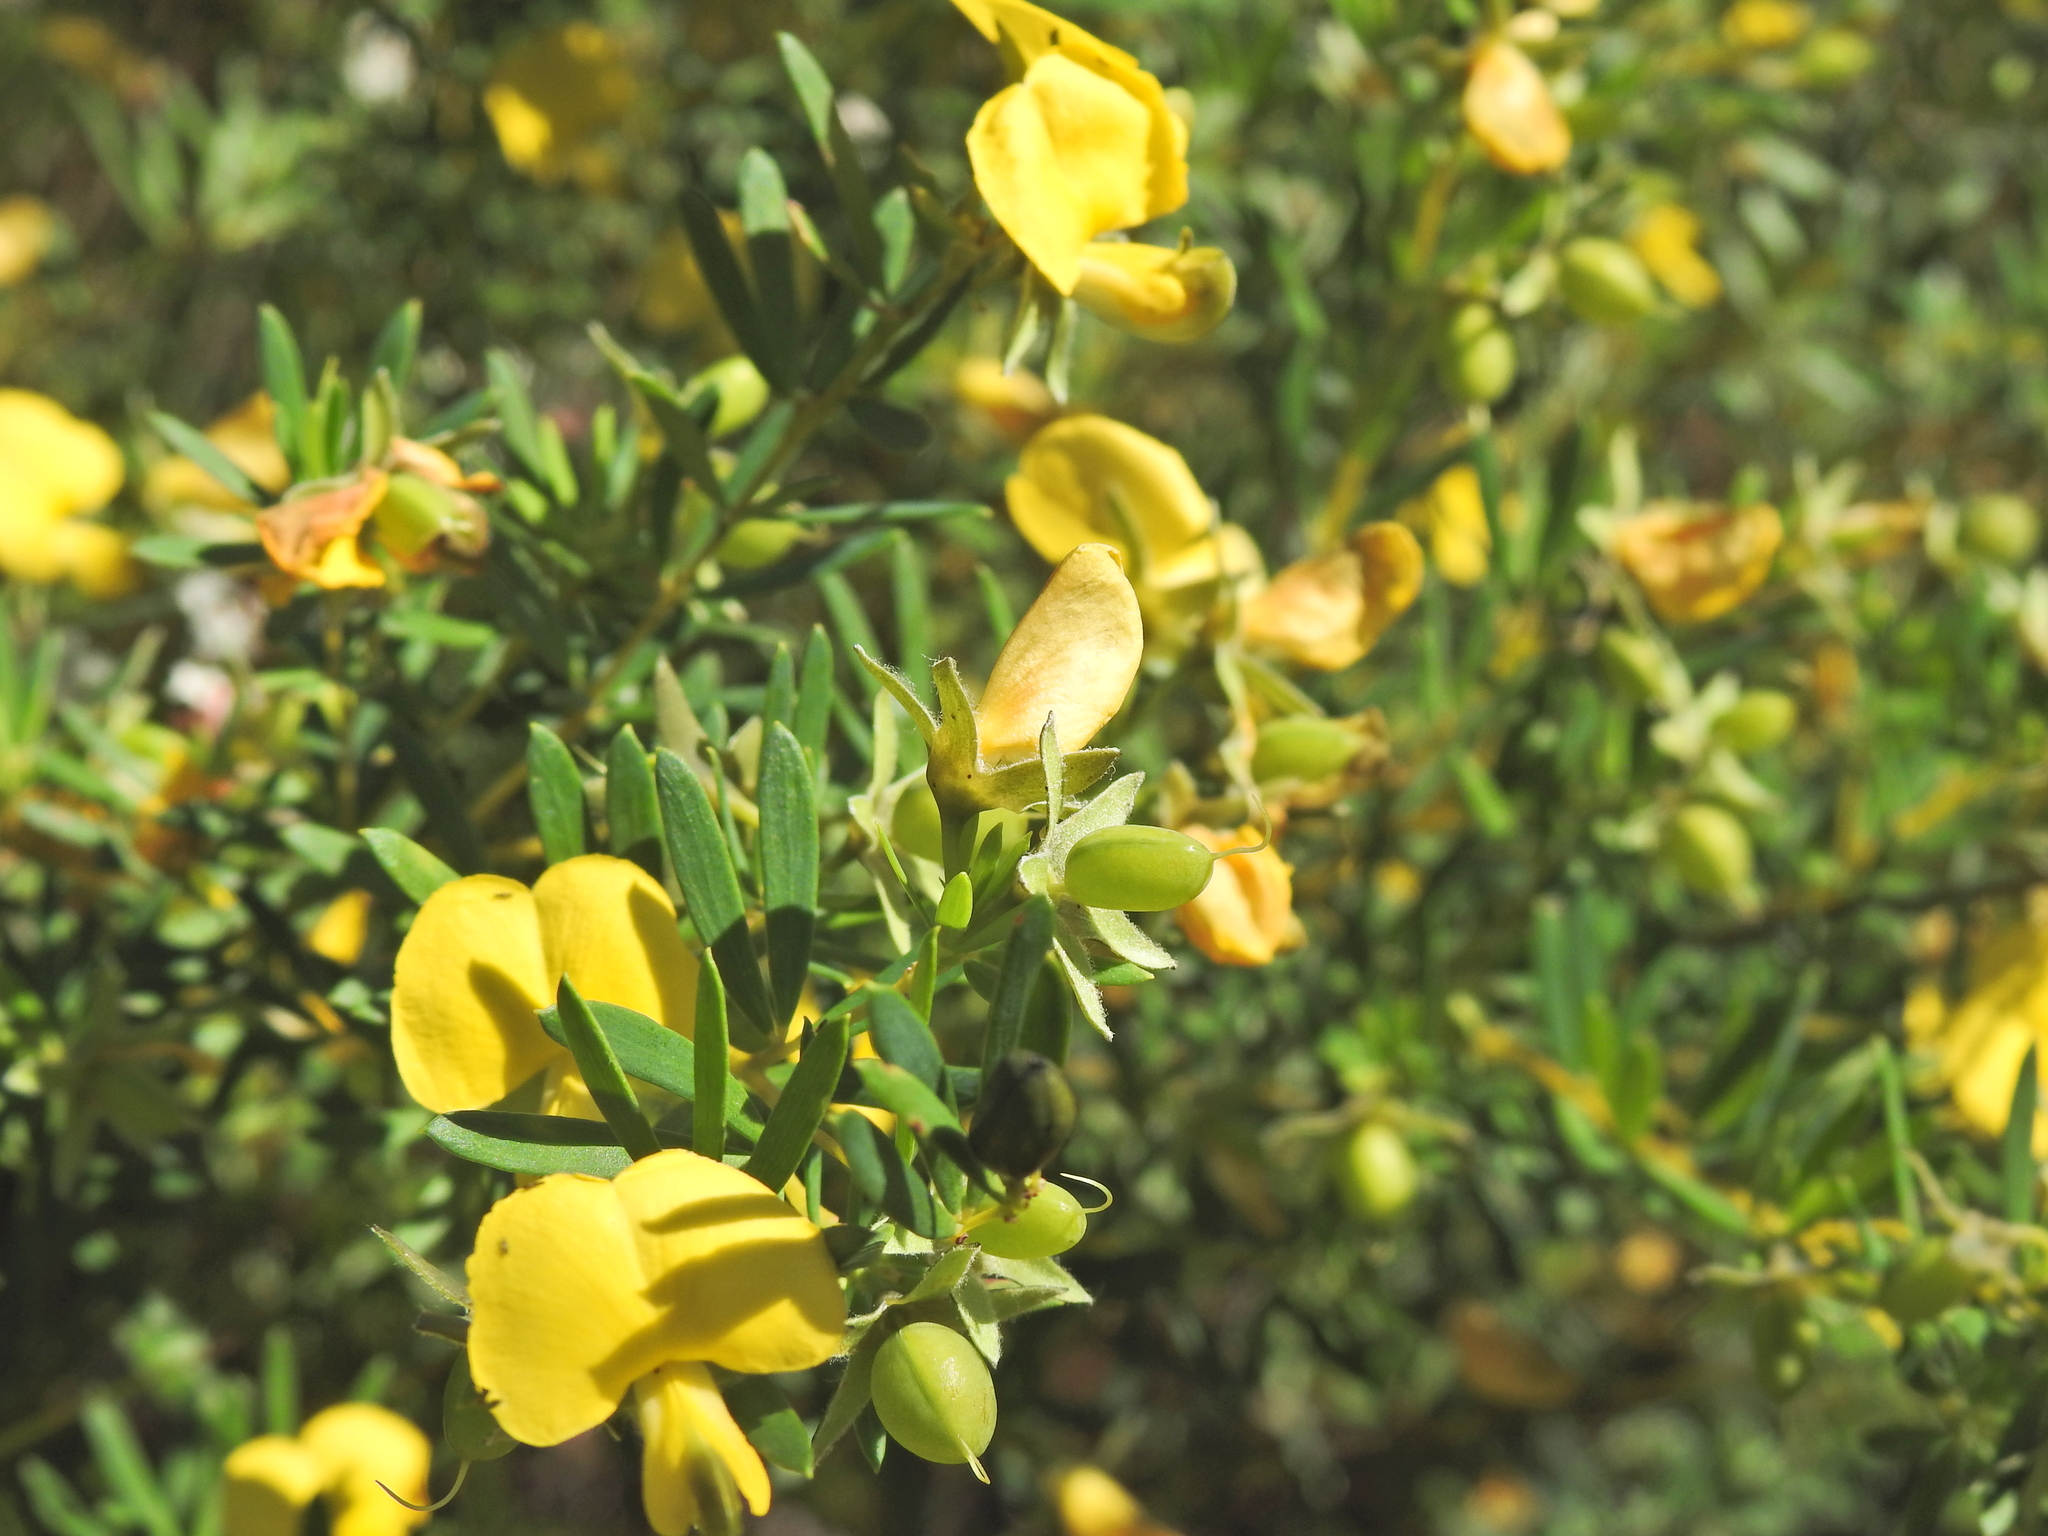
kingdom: Plantae
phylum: Tracheophyta
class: Magnoliopsida
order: Fabales
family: Fabaceae
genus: Gompholobium
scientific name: Gompholobium virgatum
